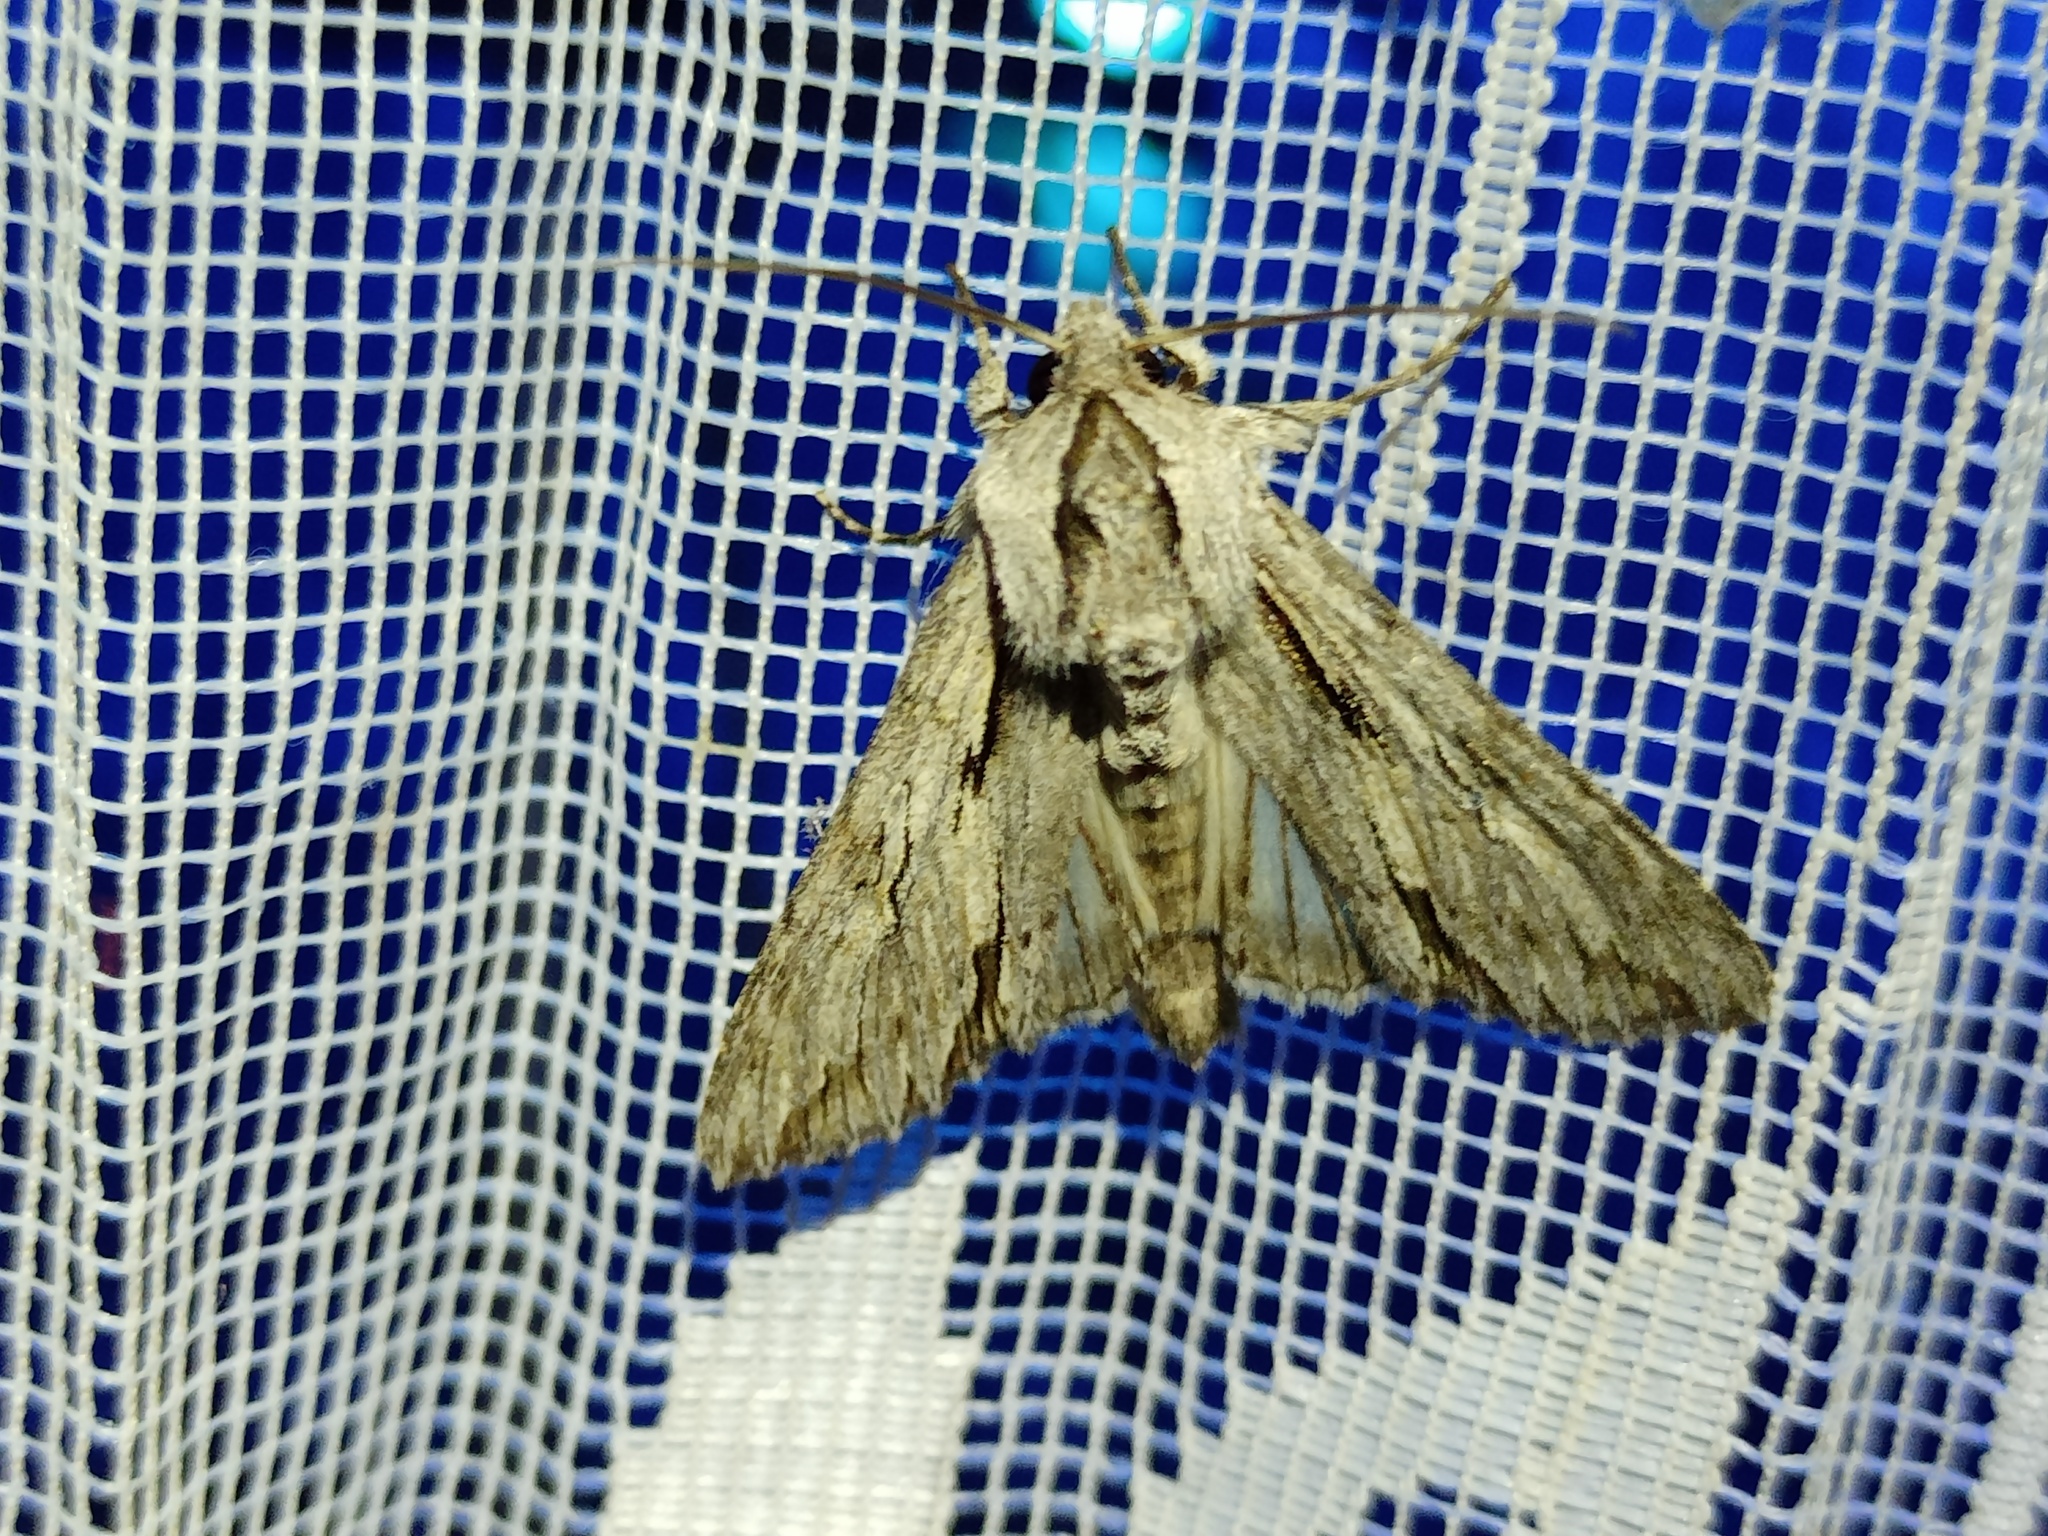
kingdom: Animalia
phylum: Arthropoda
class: Insecta
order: Lepidoptera
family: Noctuidae
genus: Auchmis
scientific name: Auchmis detersa
